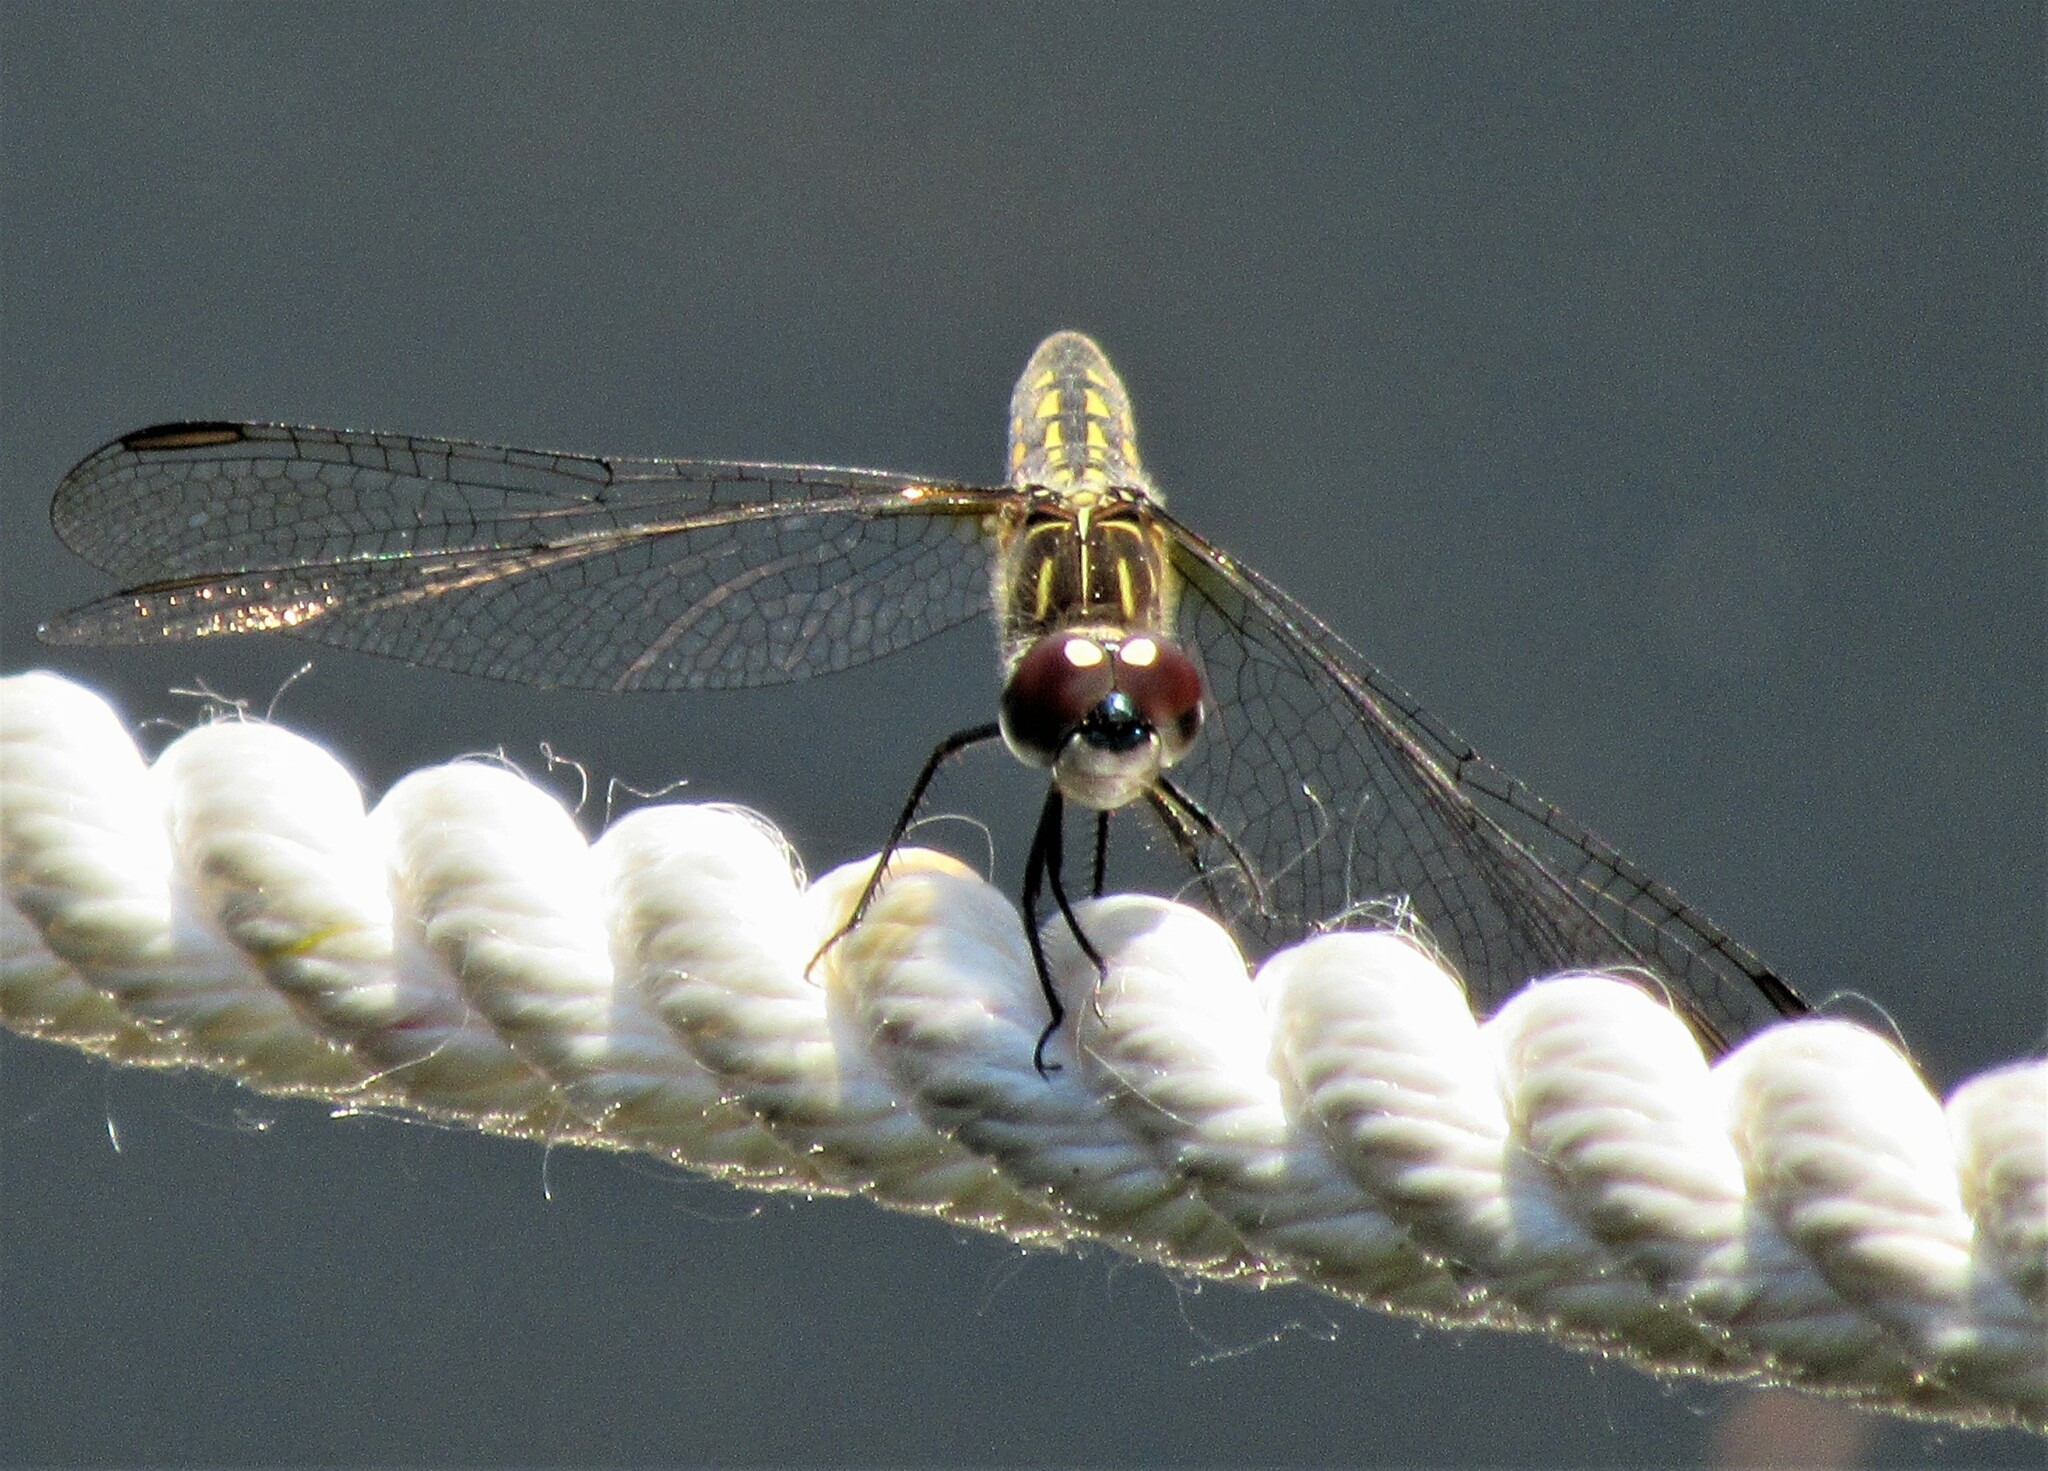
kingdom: Animalia
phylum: Arthropoda
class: Insecta
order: Odonata
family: Libellulidae
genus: Pachydiplax
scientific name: Pachydiplax longipennis
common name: Blue dasher
